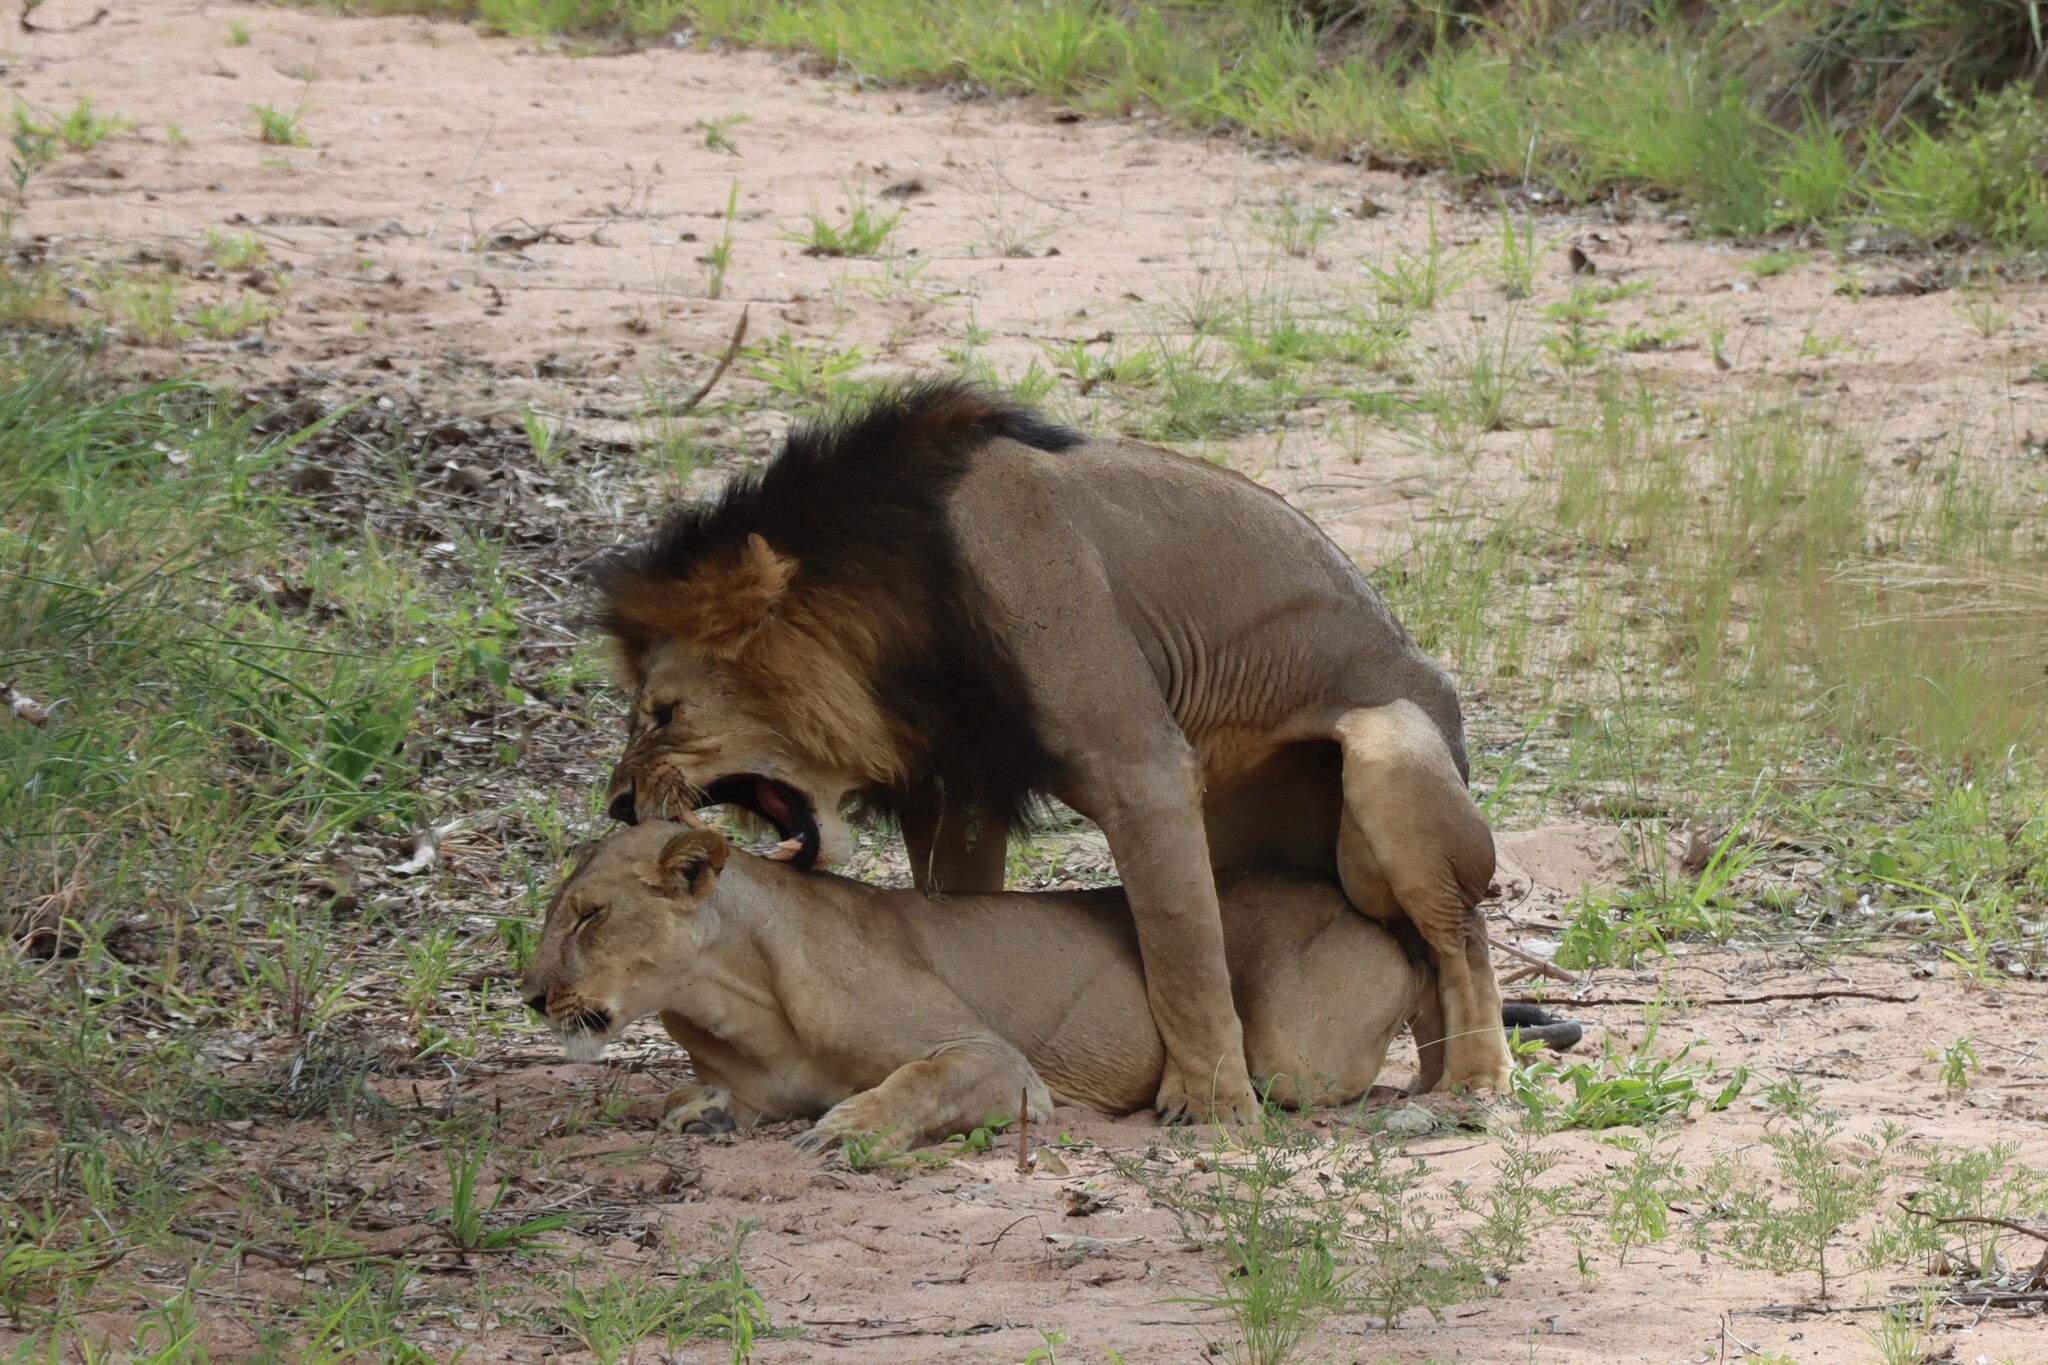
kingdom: Animalia
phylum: Chordata
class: Mammalia
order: Carnivora
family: Felidae
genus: Panthera
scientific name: Panthera leo
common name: Lion
